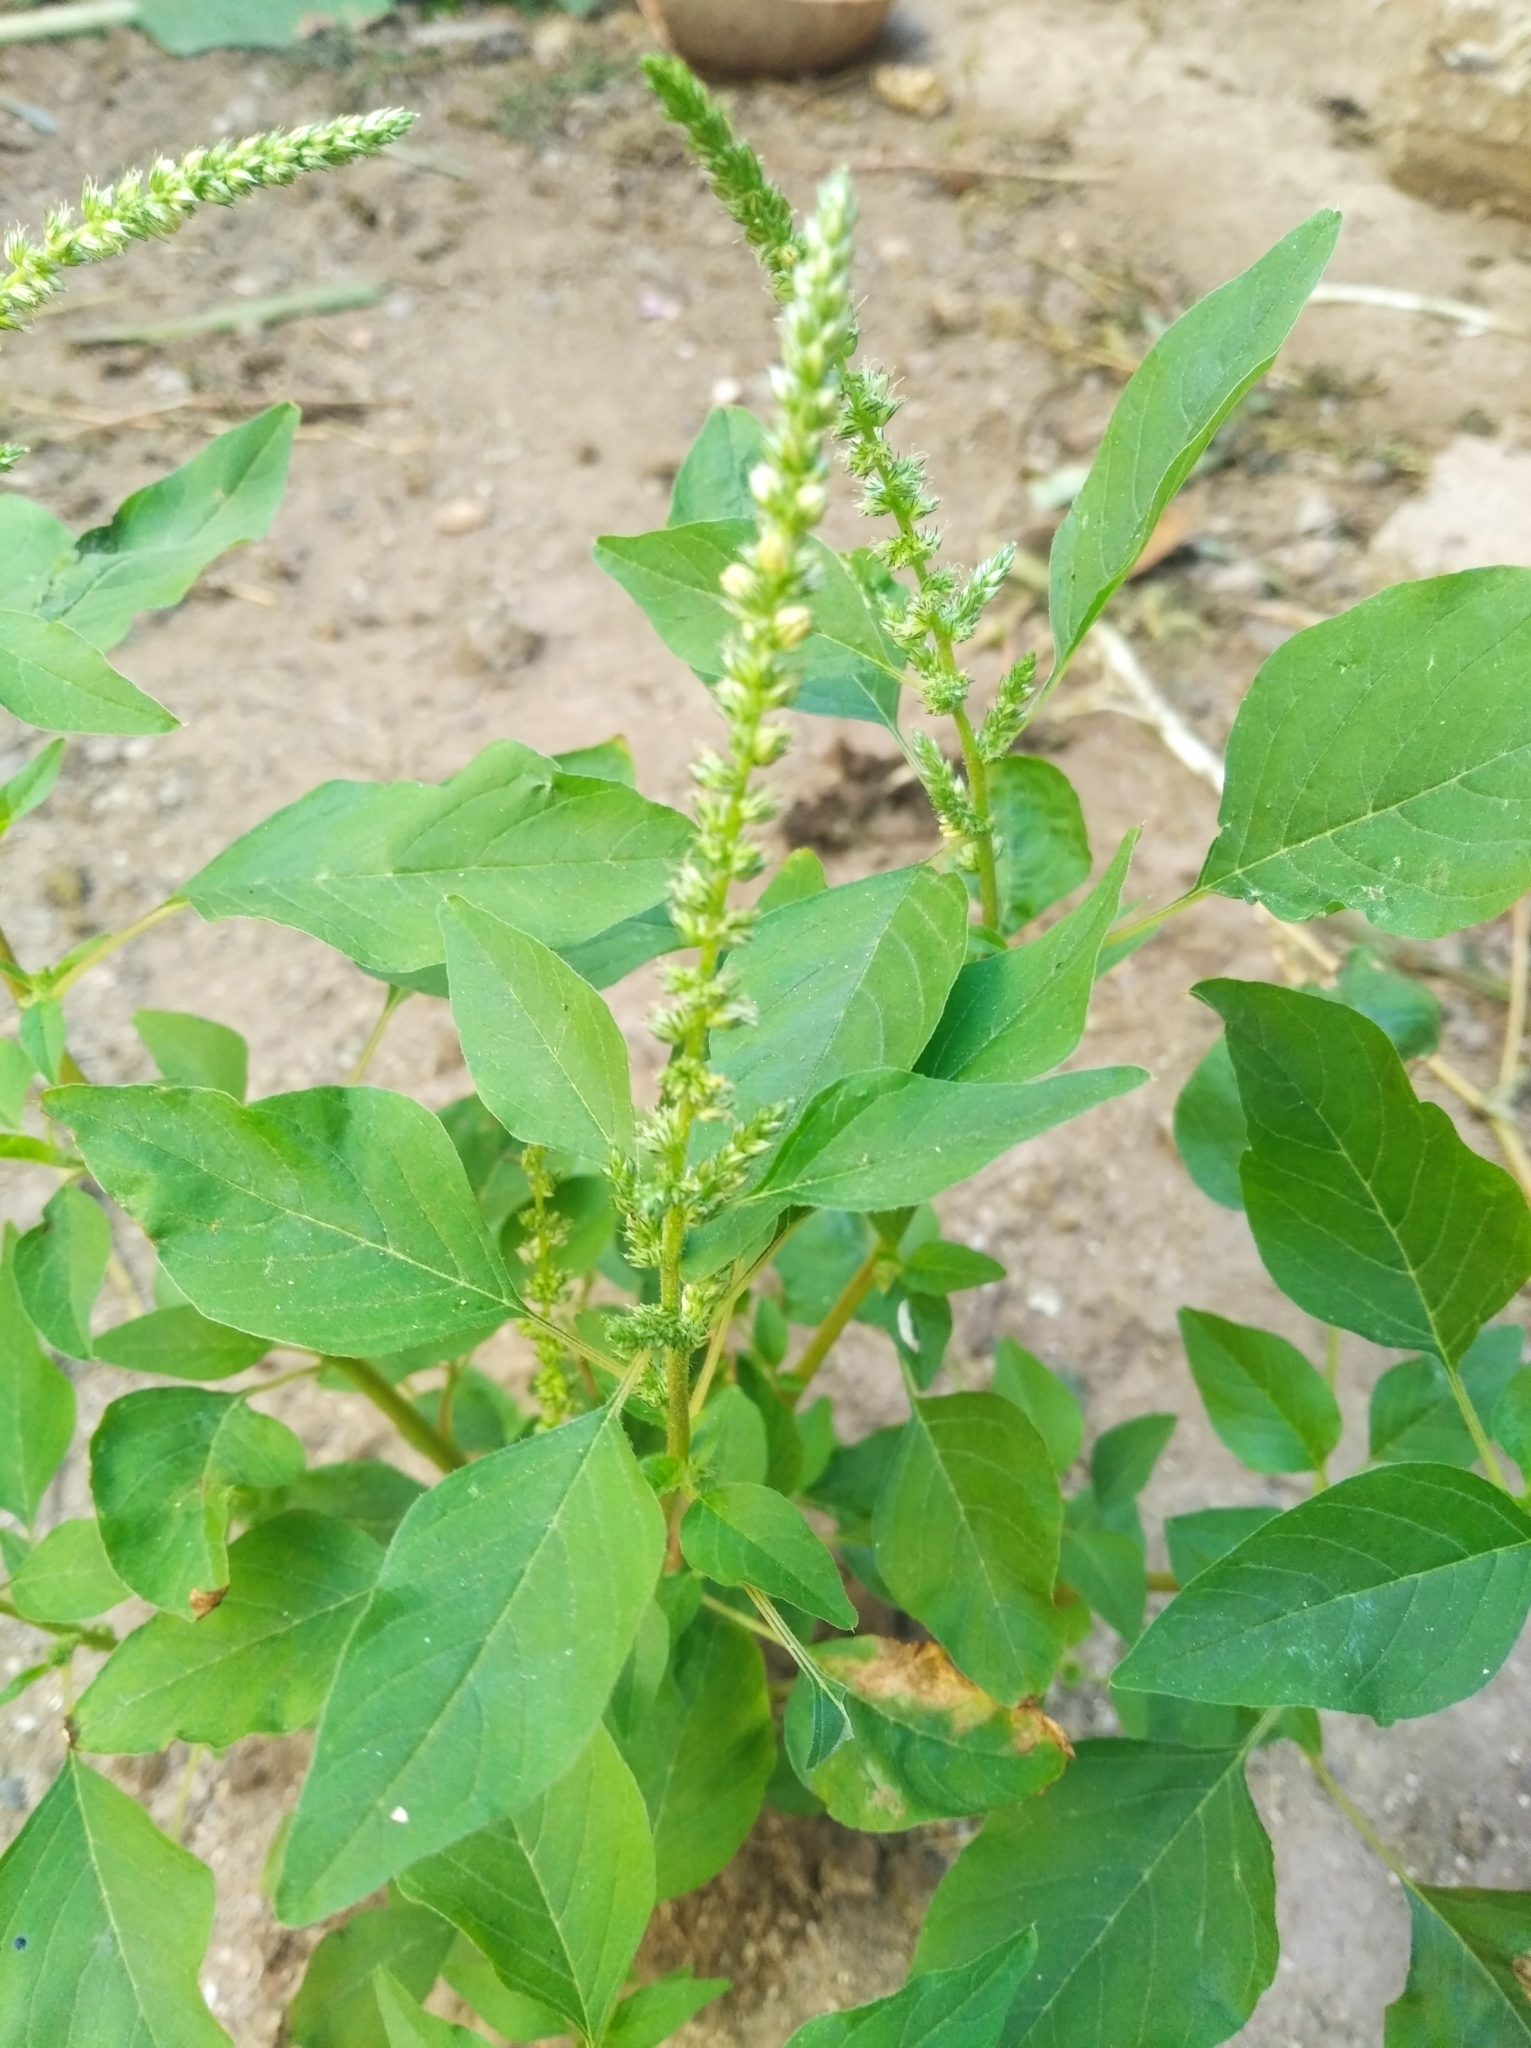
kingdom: Plantae
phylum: Tracheophyta
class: Magnoliopsida
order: Caryophyllales
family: Amaranthaceae
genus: Amaranthus
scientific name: Amaranthus viridis
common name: Slender amaranth
